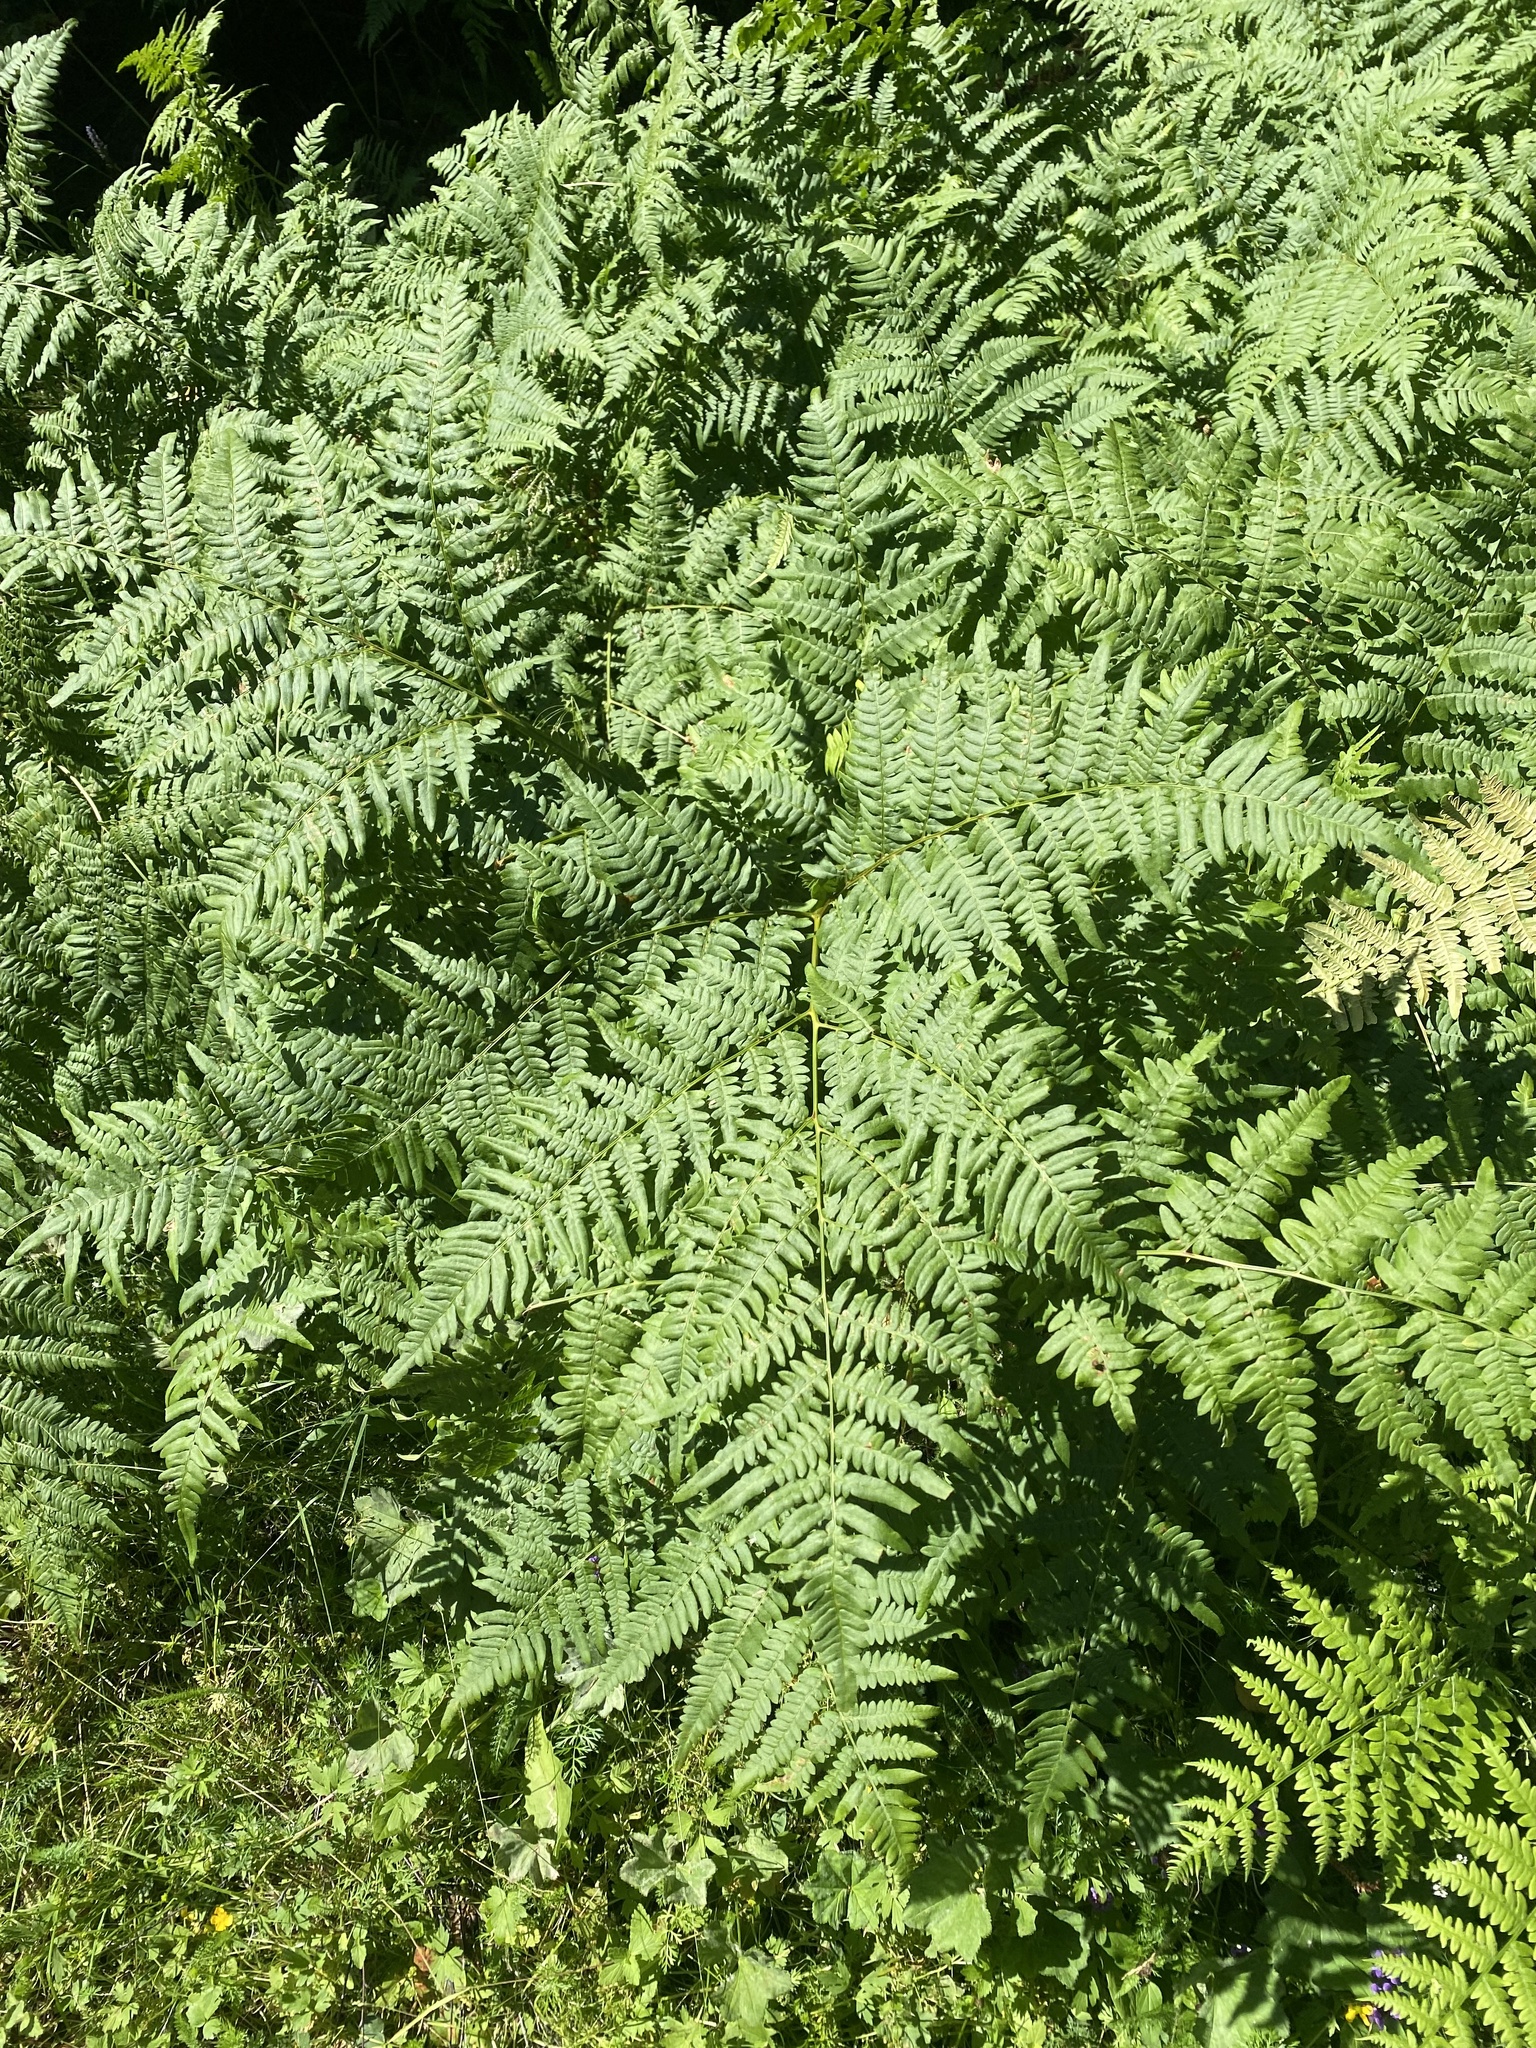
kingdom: Plantae
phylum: Tracheophyta
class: Polypodiopsida
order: Polypodiales
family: Dennstaedtiaceae
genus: Pteridium
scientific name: Pteridium aquilinum
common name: Bracken
